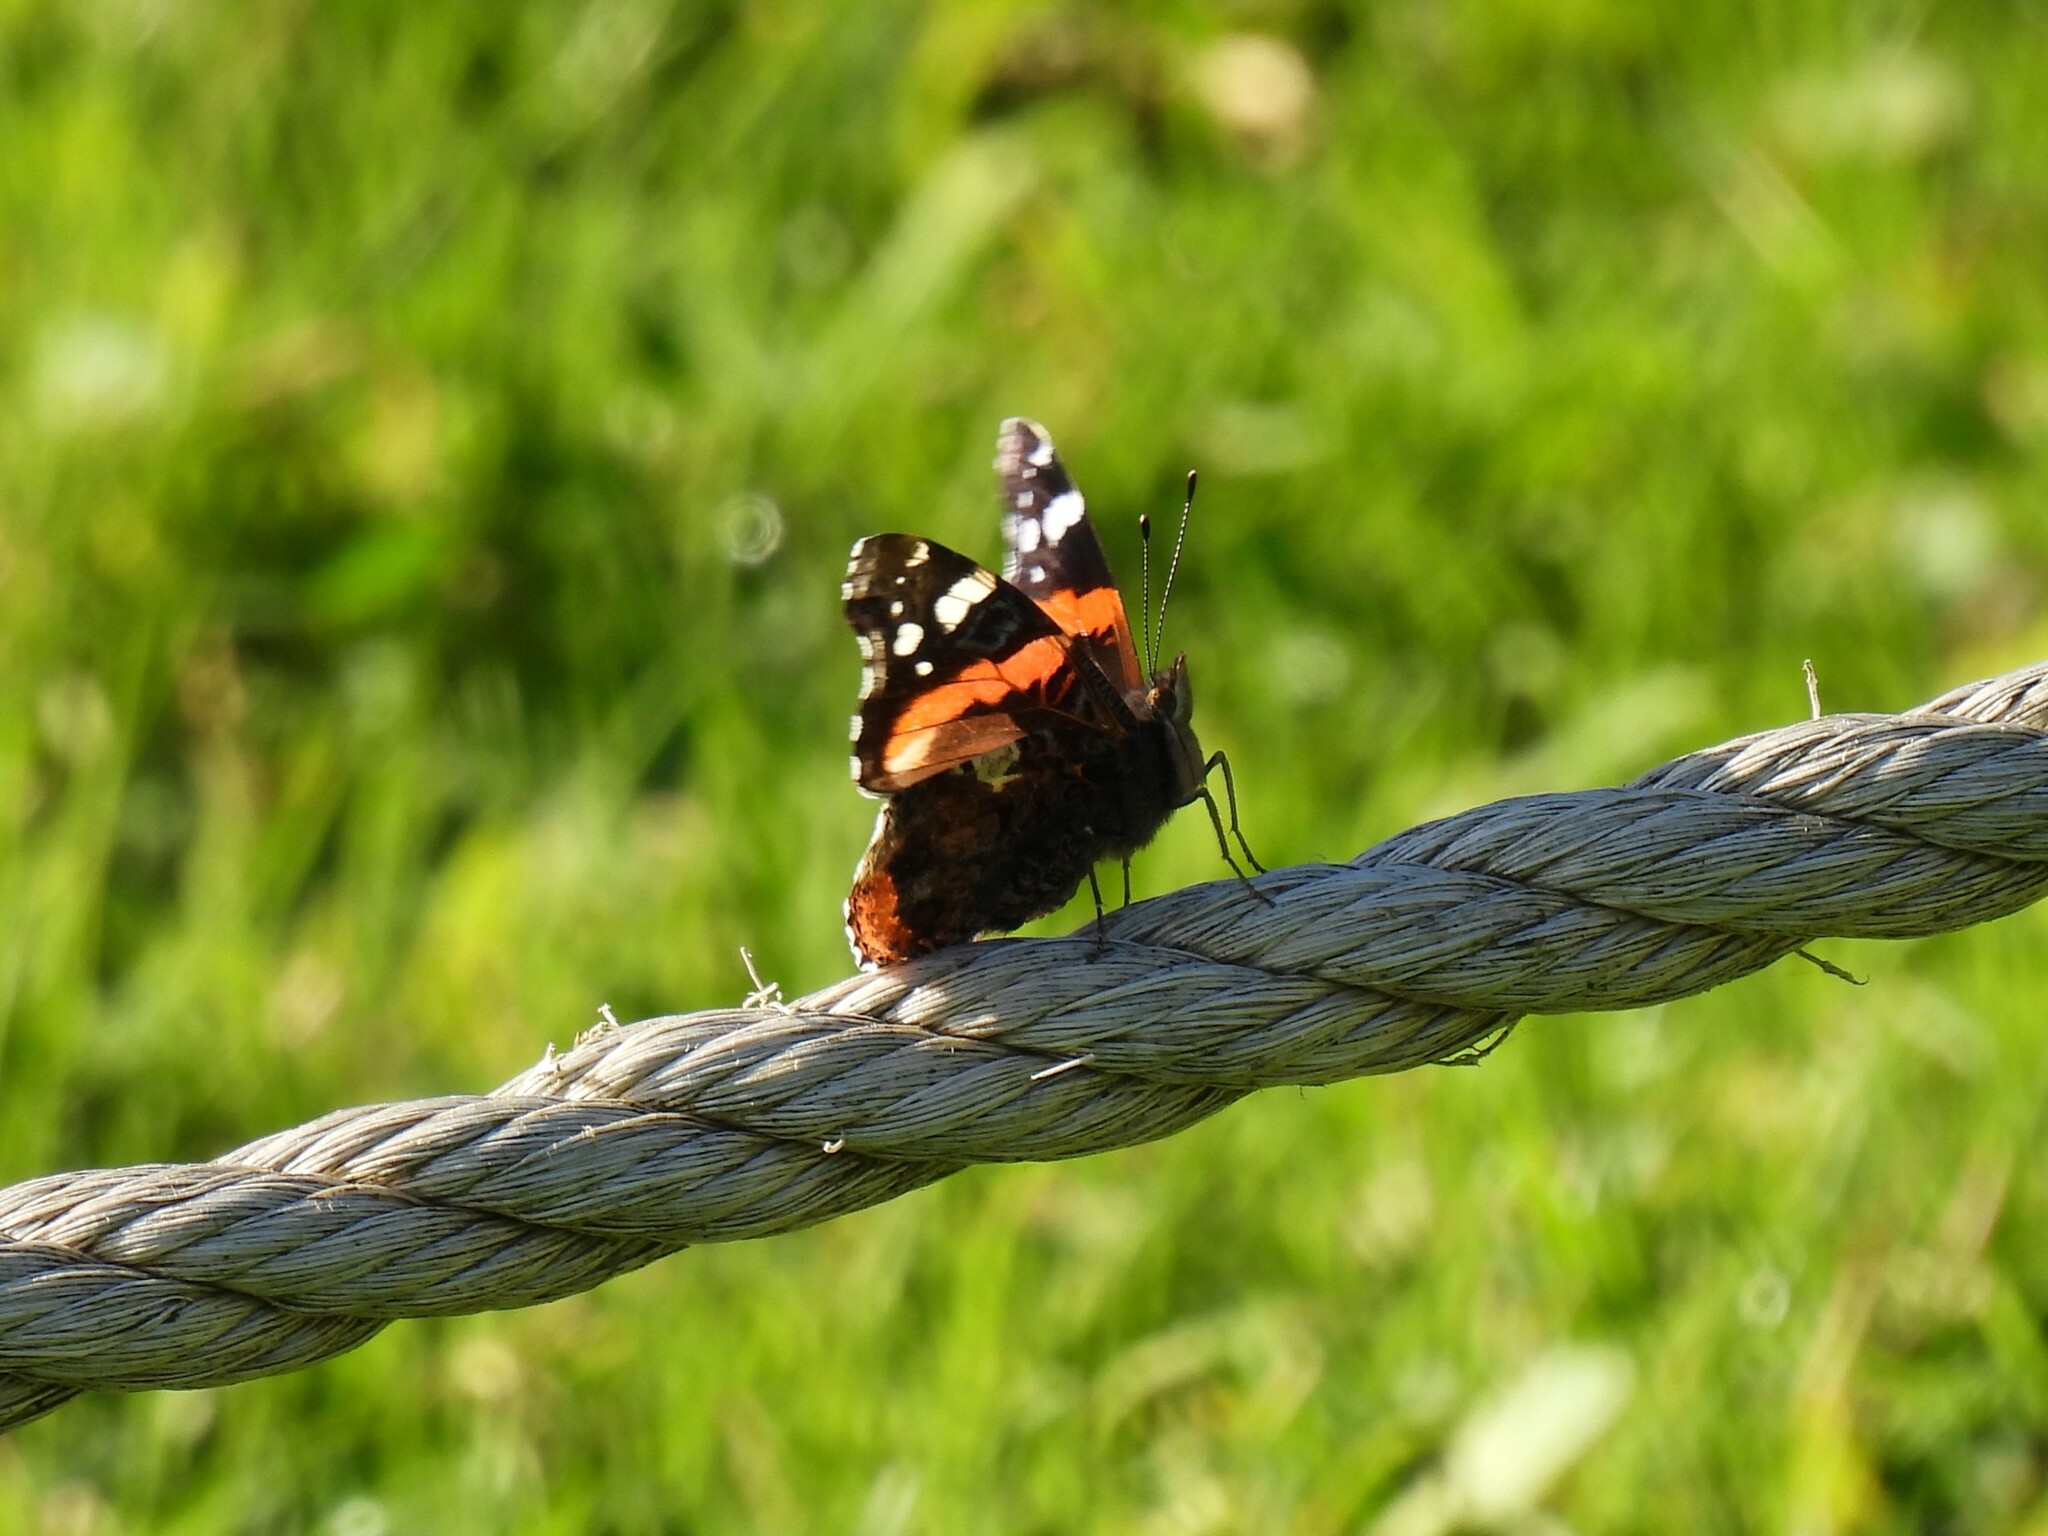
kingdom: Animalia
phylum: Arthropoda
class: Insecta
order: Lepidoptera
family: Nymphalidae
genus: Vanessa
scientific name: Vanessa atalanta
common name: Red admiral
